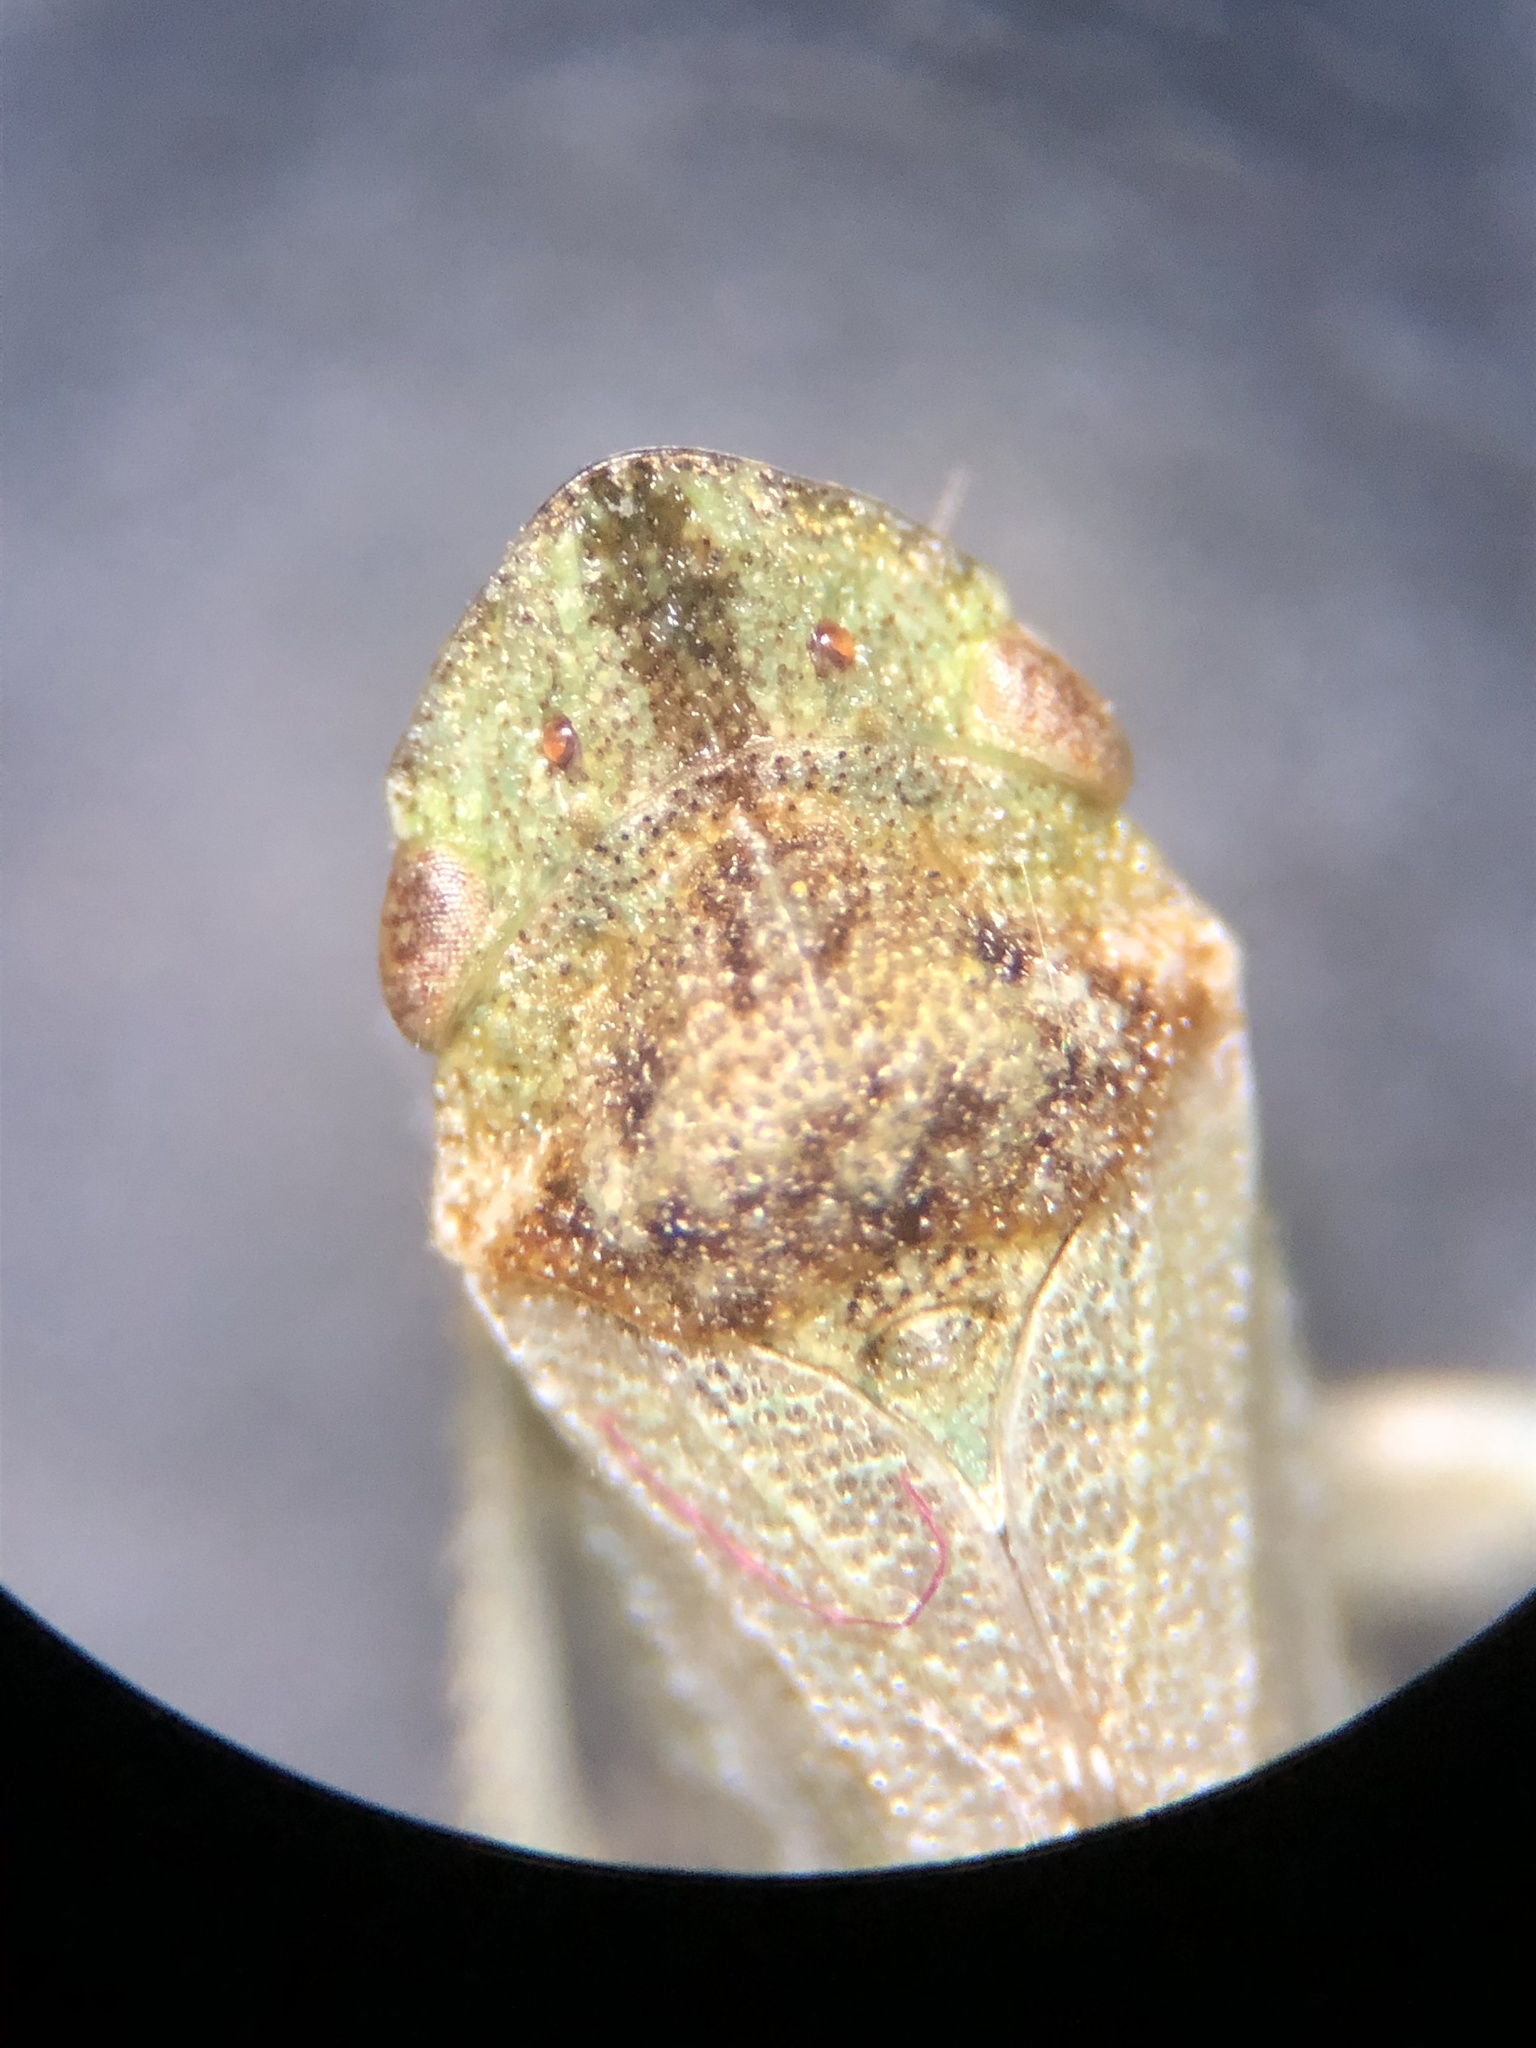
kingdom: Animalia
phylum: Arthropoda
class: Insecta
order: Hemiptera
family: Cicadellidae
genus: Xerophloea
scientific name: Xerophloea peltata
